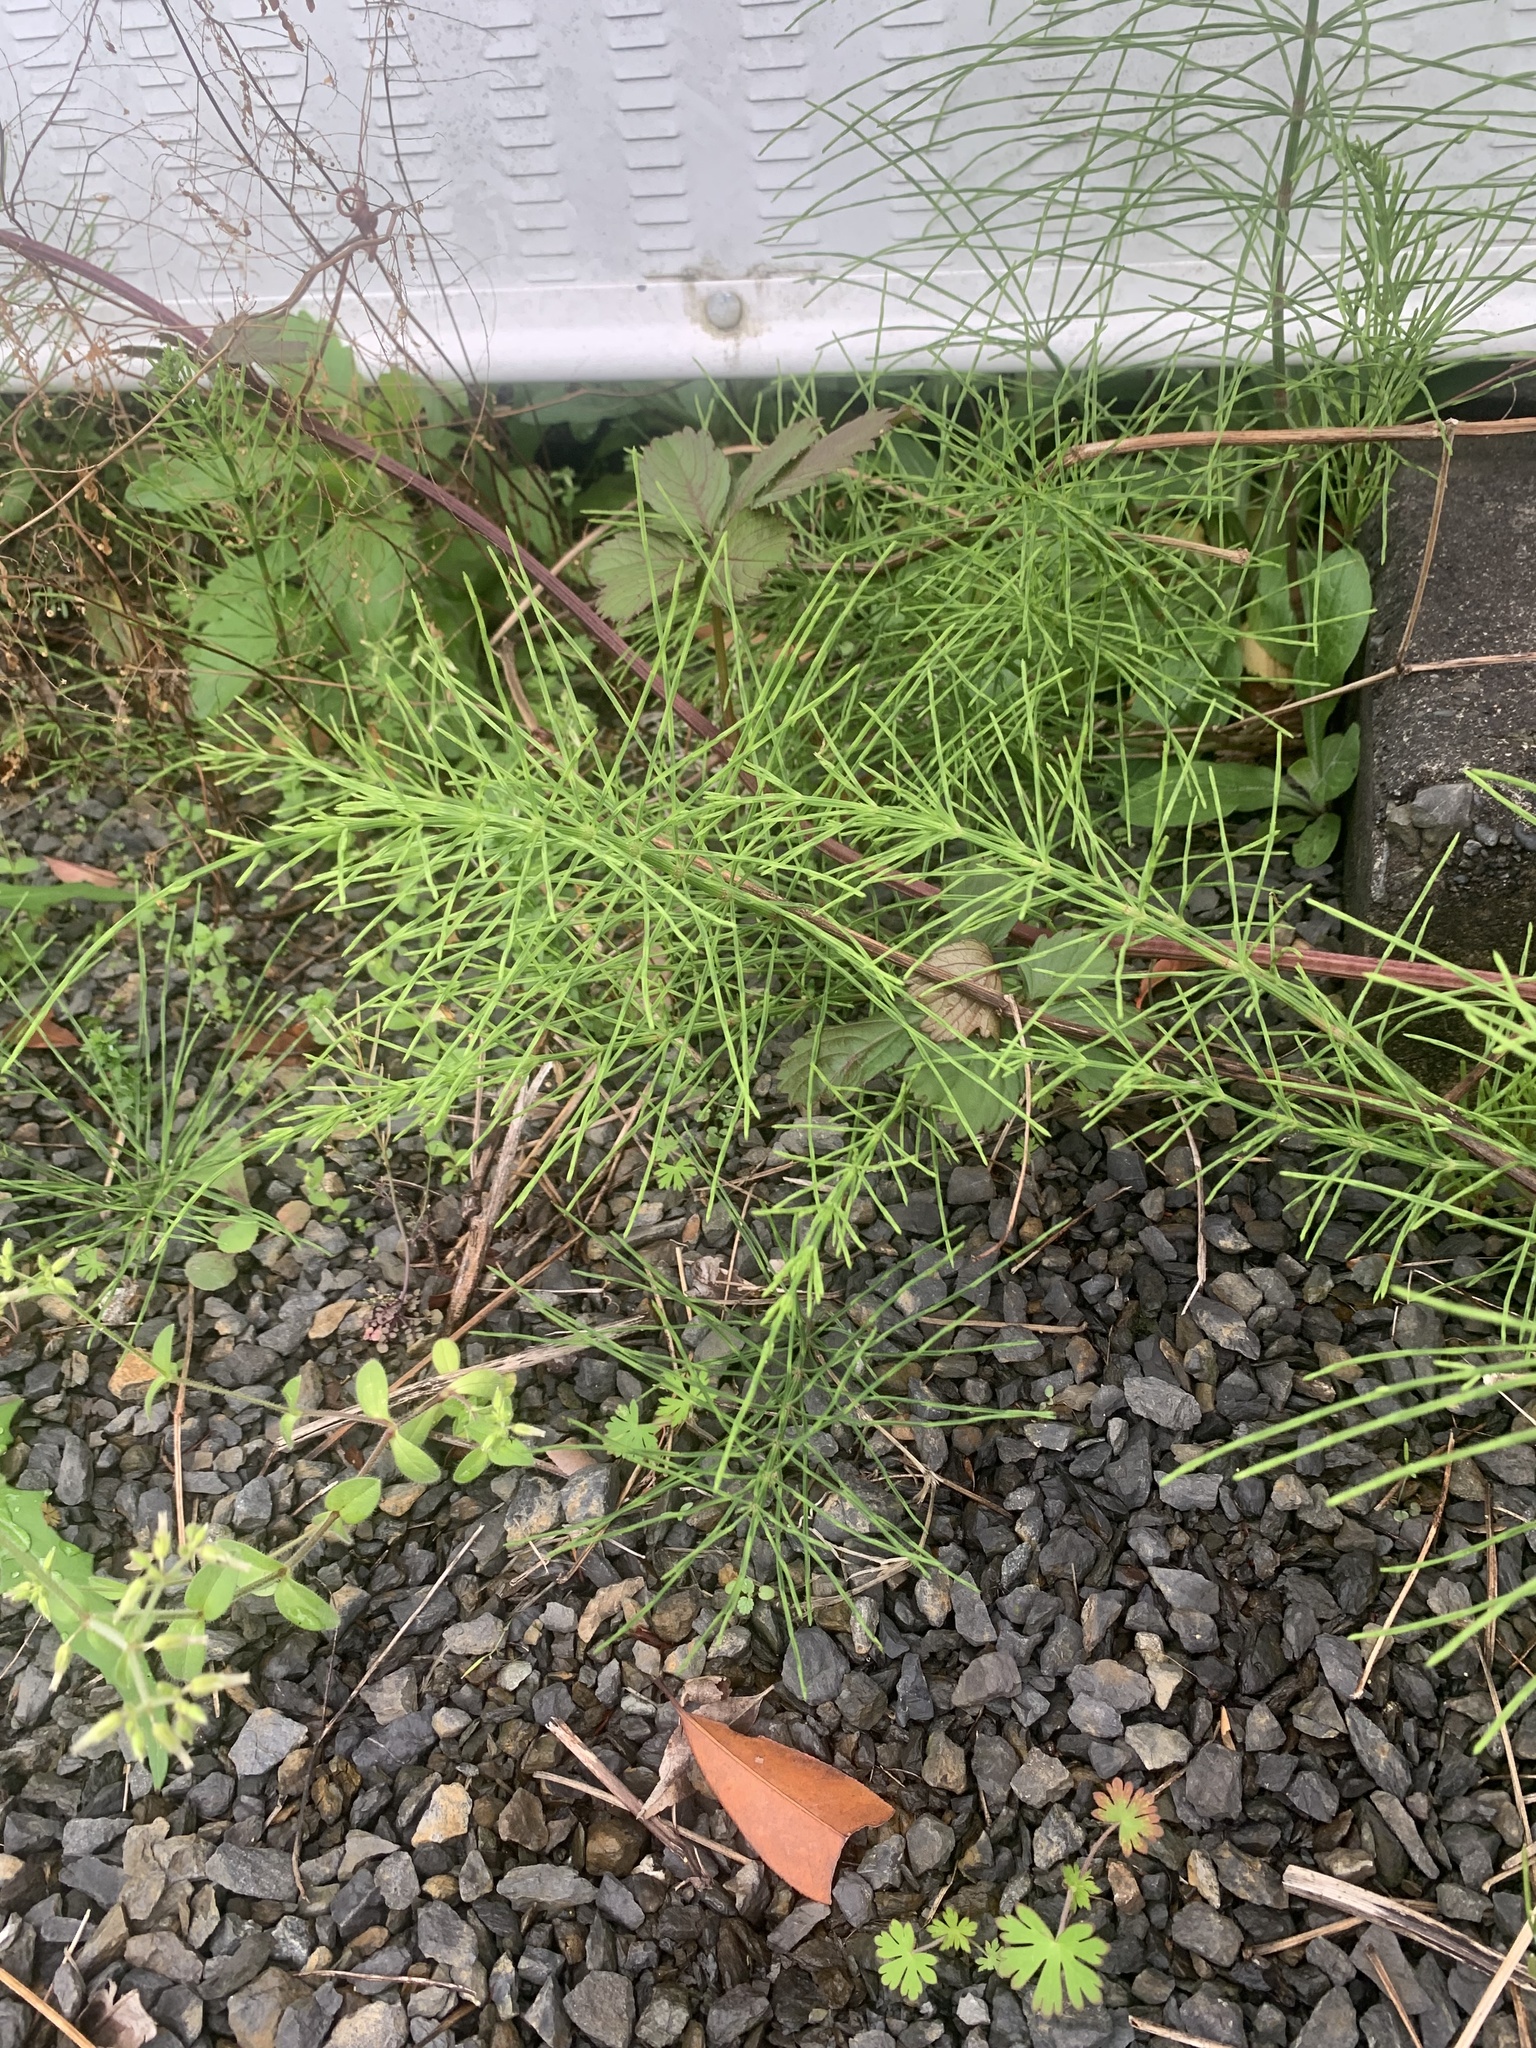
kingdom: Plantae
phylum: Tracheophyta
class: Polypodiopsida
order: Equisetales
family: Equisetaceae
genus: Equisetum
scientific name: Equisetum arvense
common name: Field horsetail
